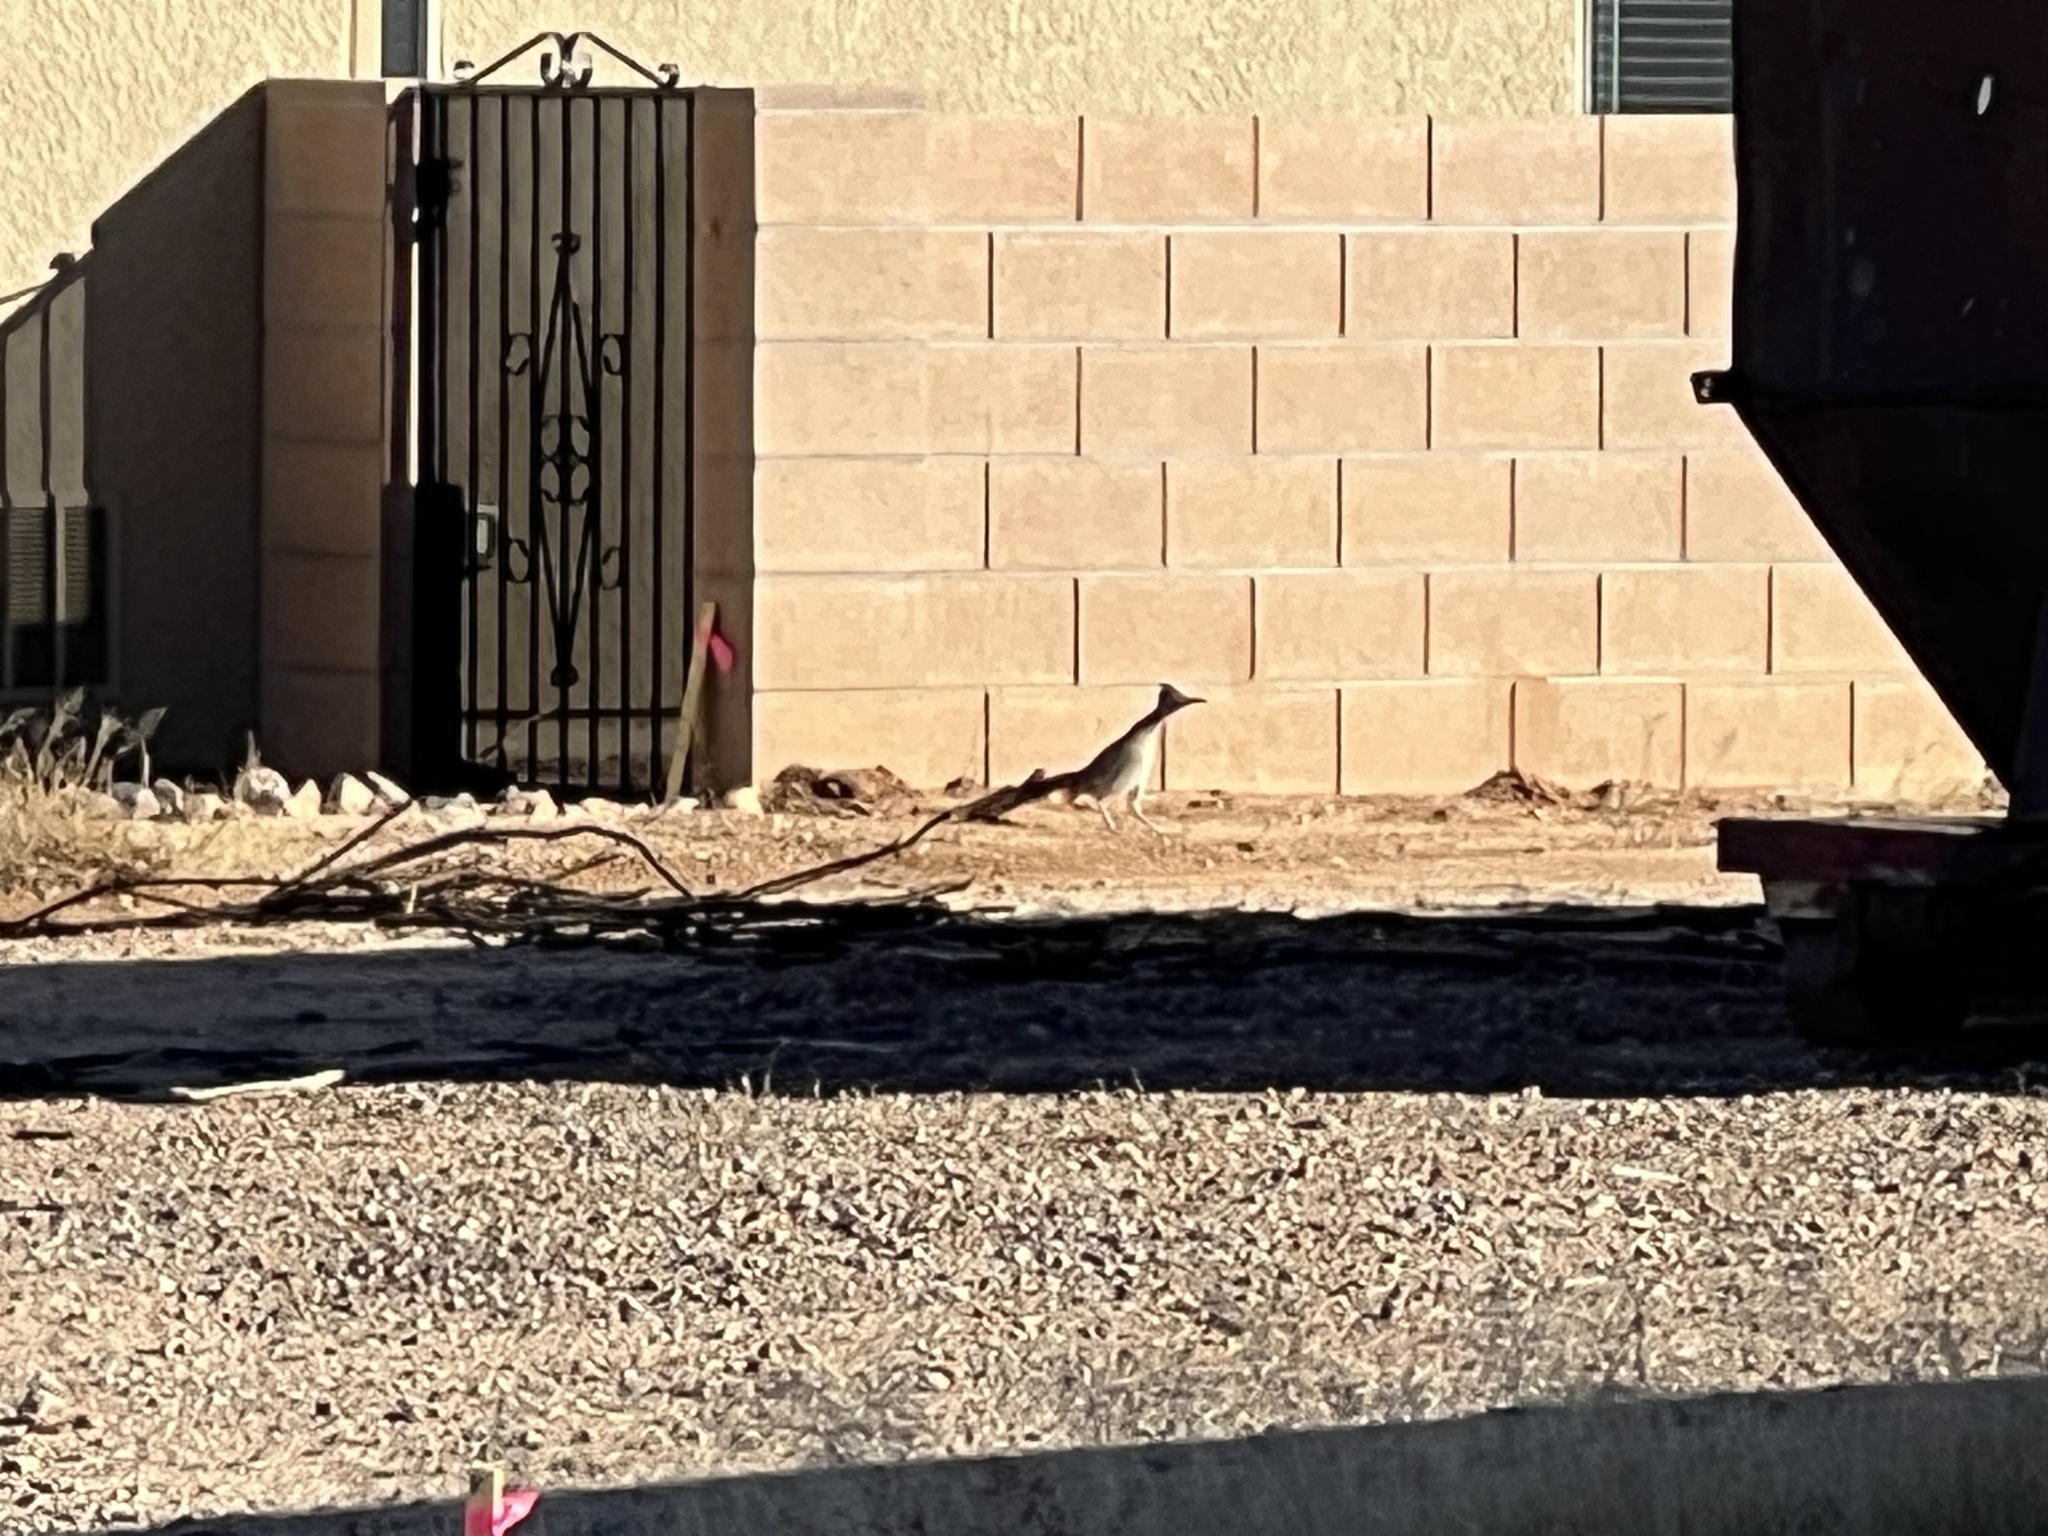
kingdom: Animalia
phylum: Chordata
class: Aves
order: Cuculiformes
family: Cuculidae
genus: Geococcyx
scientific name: Geococcyx californianus
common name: Greater roadrunner
